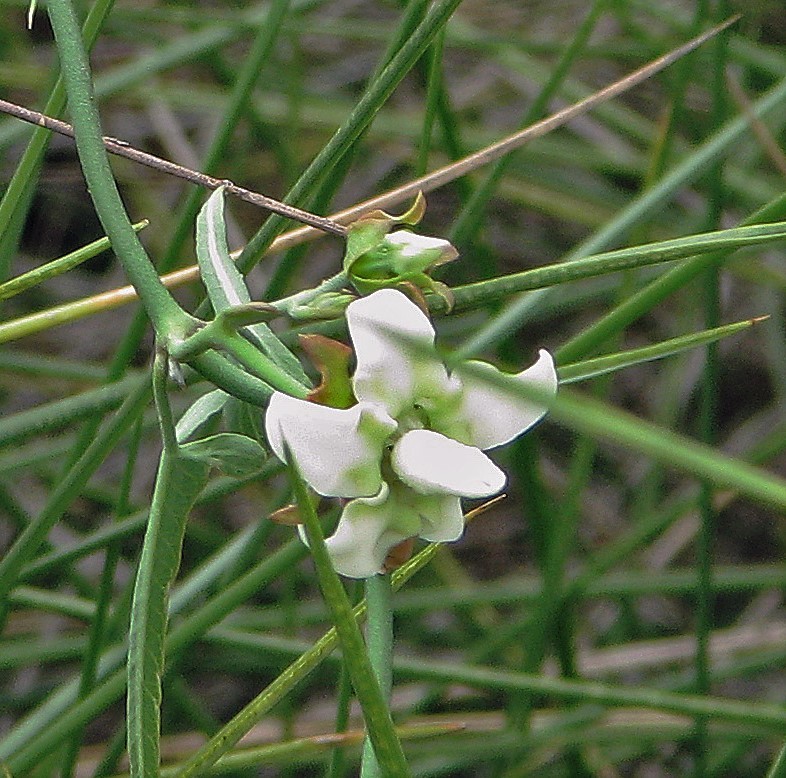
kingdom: Plantae
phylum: Tracheophyta
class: Magnoliopsida
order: Gentianales
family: Apocynaceae
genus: Araujia
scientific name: Araujia angustifolia
